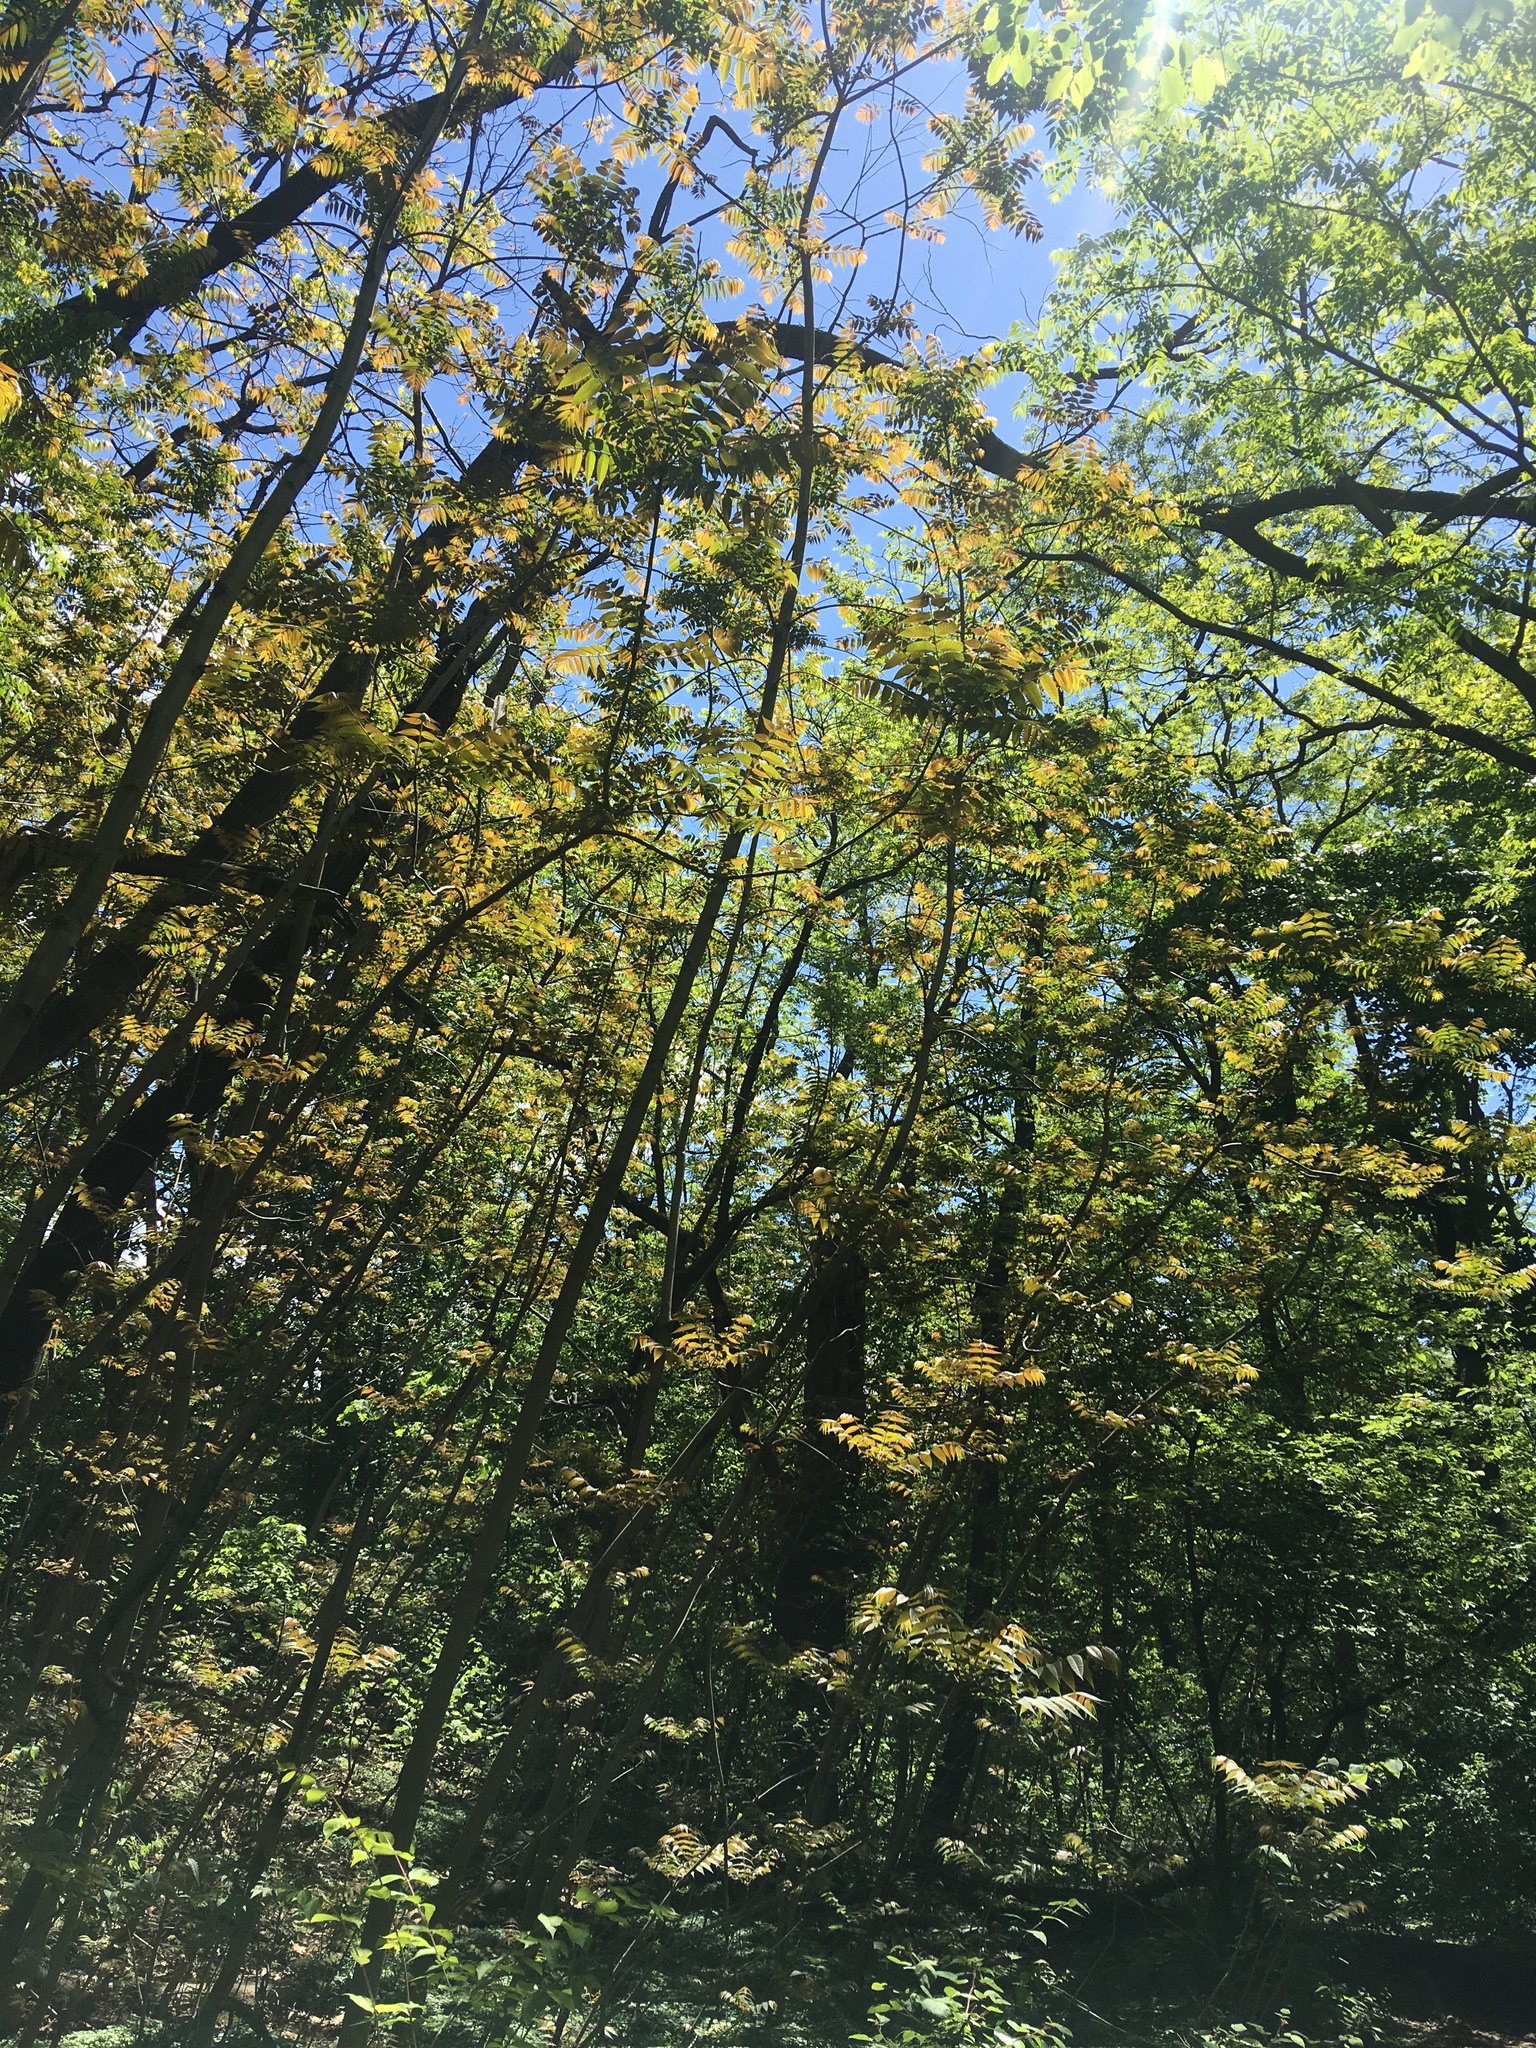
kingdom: Plantae
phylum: Tracheophyta
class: Magnoliopsida
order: Sapindales
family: Meliaceae
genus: Toona
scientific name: Toona sinensis
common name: Red toon
